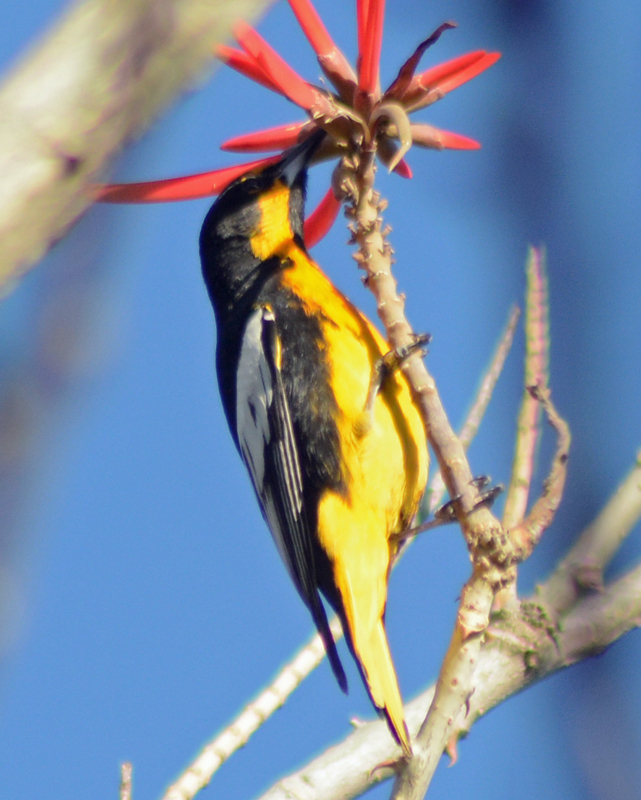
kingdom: Animalia
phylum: Chordata
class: Aves
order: Passeriformes
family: Icteridae
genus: Icterus
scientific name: Icterus abeillei
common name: Black-backed oriole
